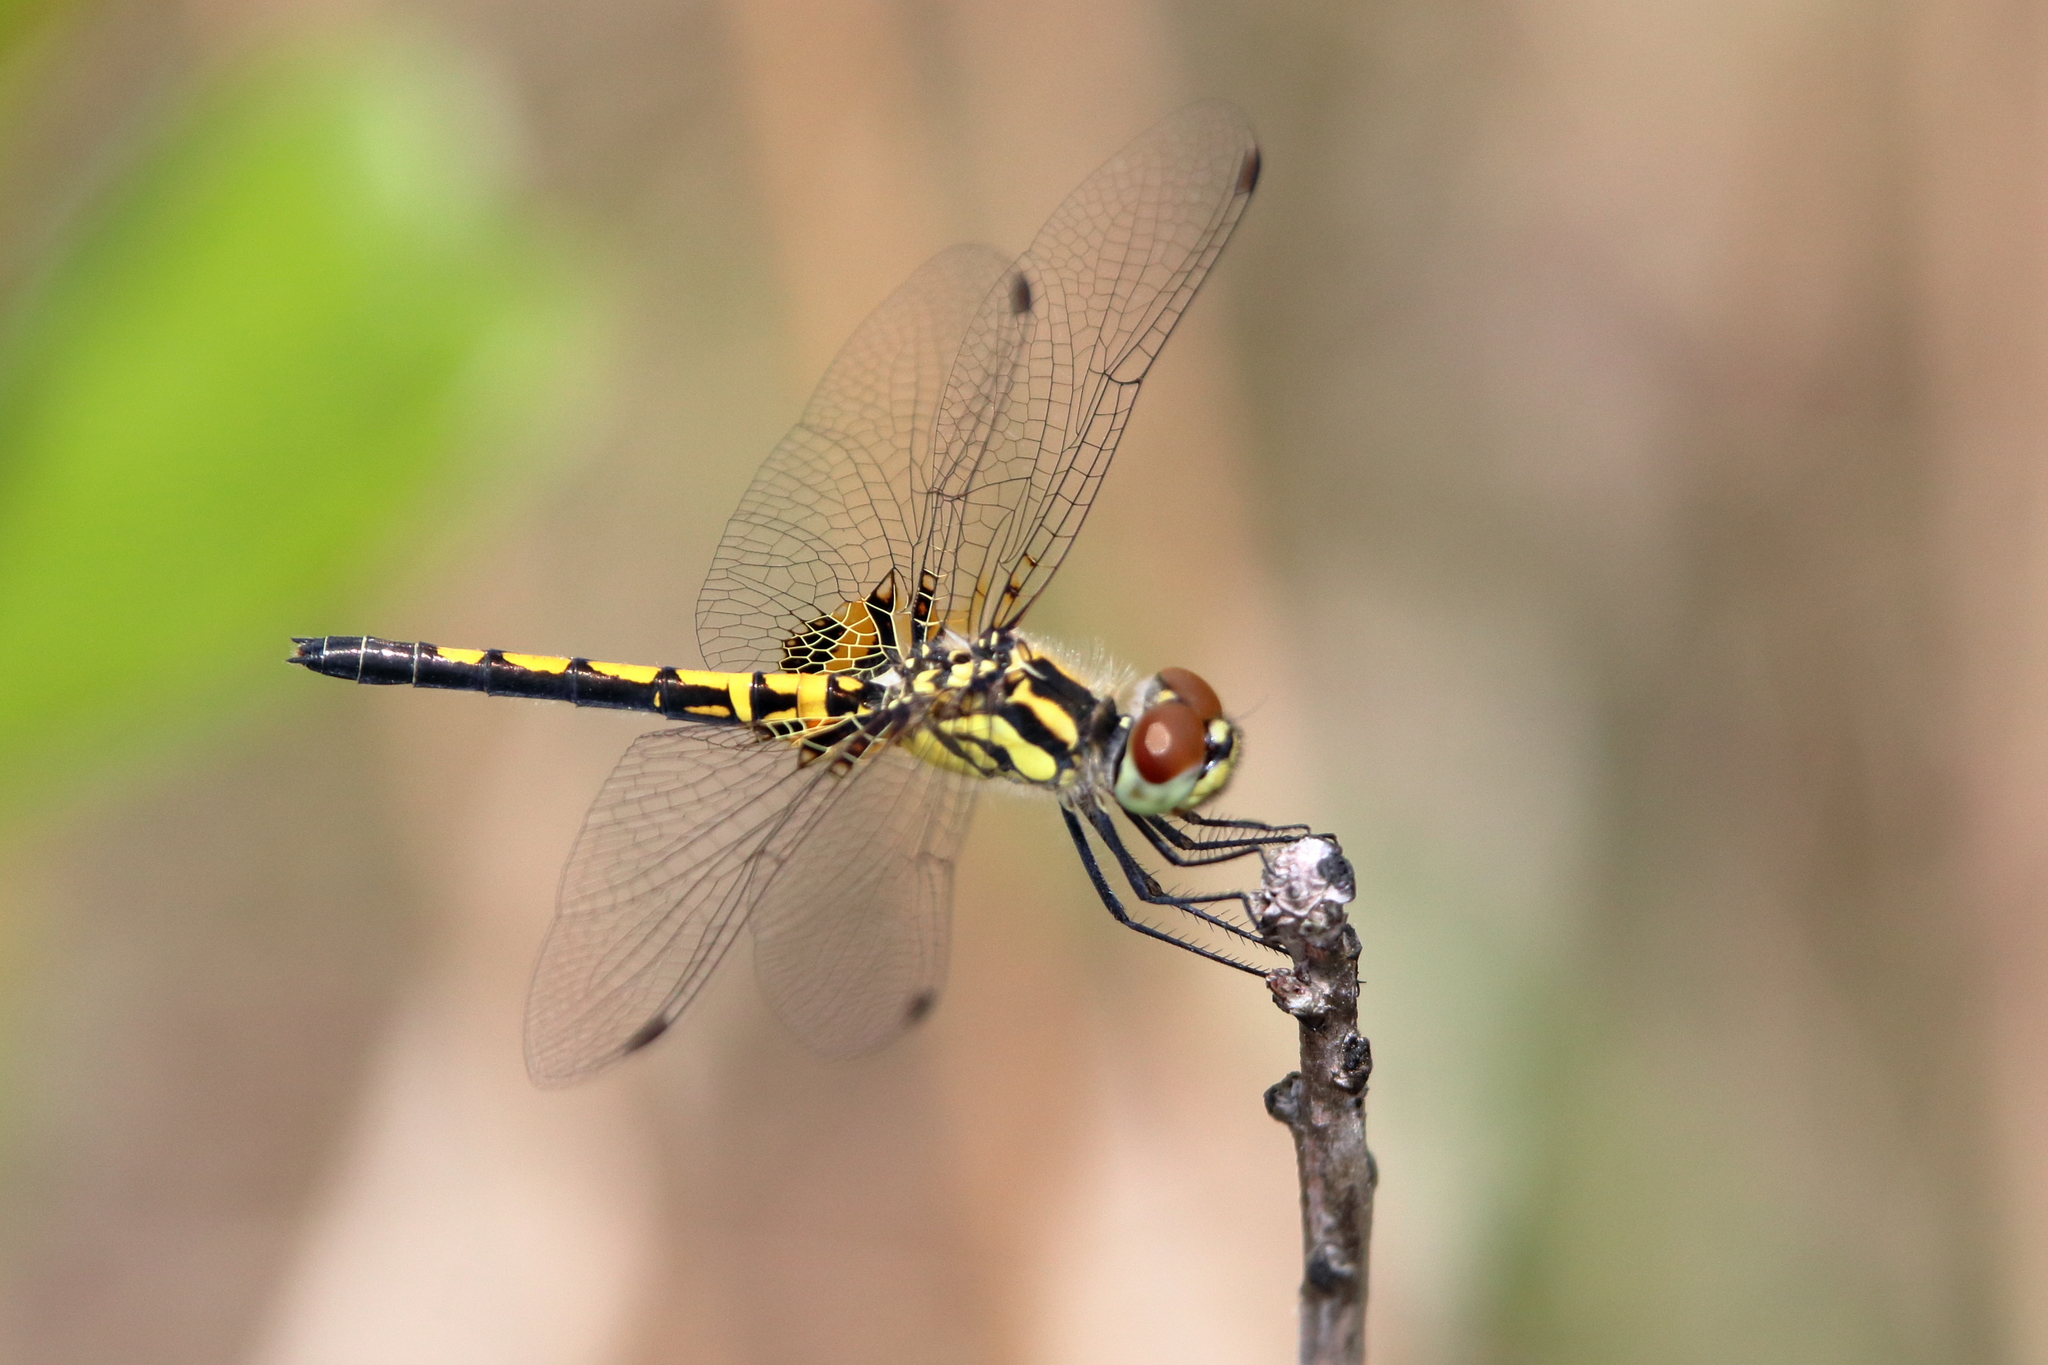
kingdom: Animalia
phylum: Arthropoda
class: Insecta
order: Odonata
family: Libellulidae
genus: Celithemis
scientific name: Celithemis ornata
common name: Ornate pennant
